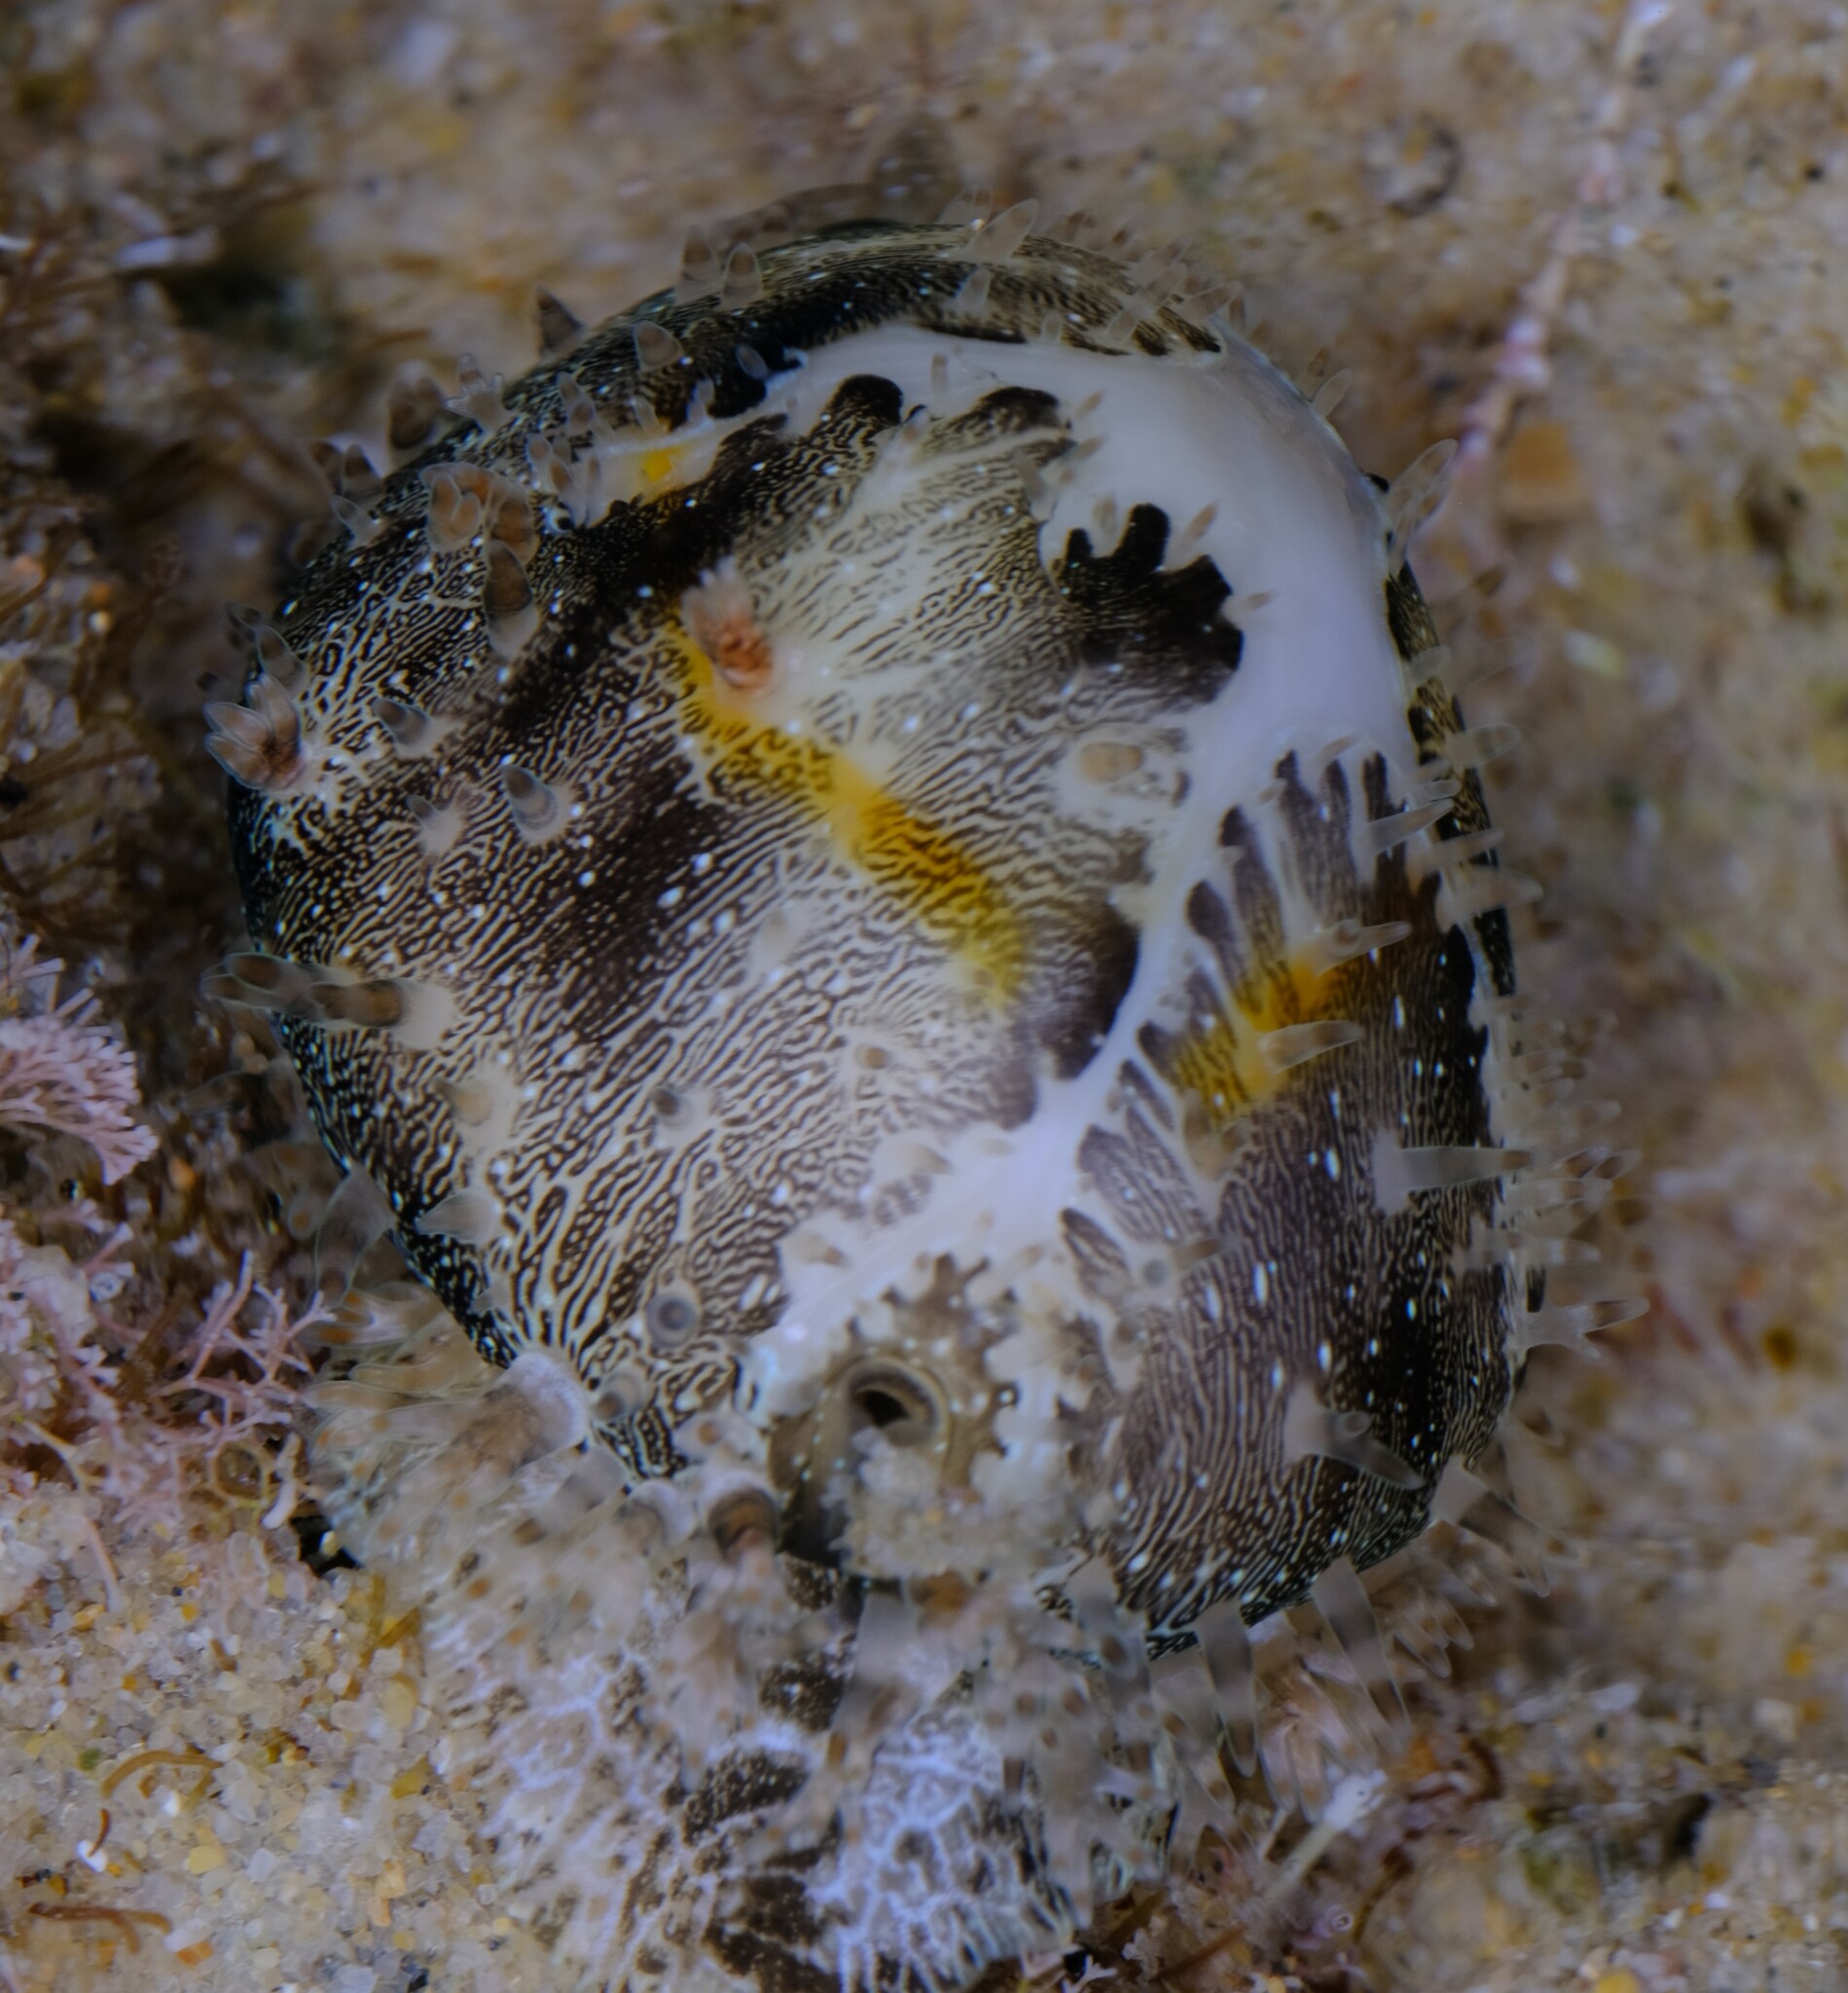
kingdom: Animalia
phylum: Mollusca
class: Gastropoda
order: Littorinimorpha
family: Cypraeidae
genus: Monetaria
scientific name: Monetaria annulus
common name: Ring cowrie
